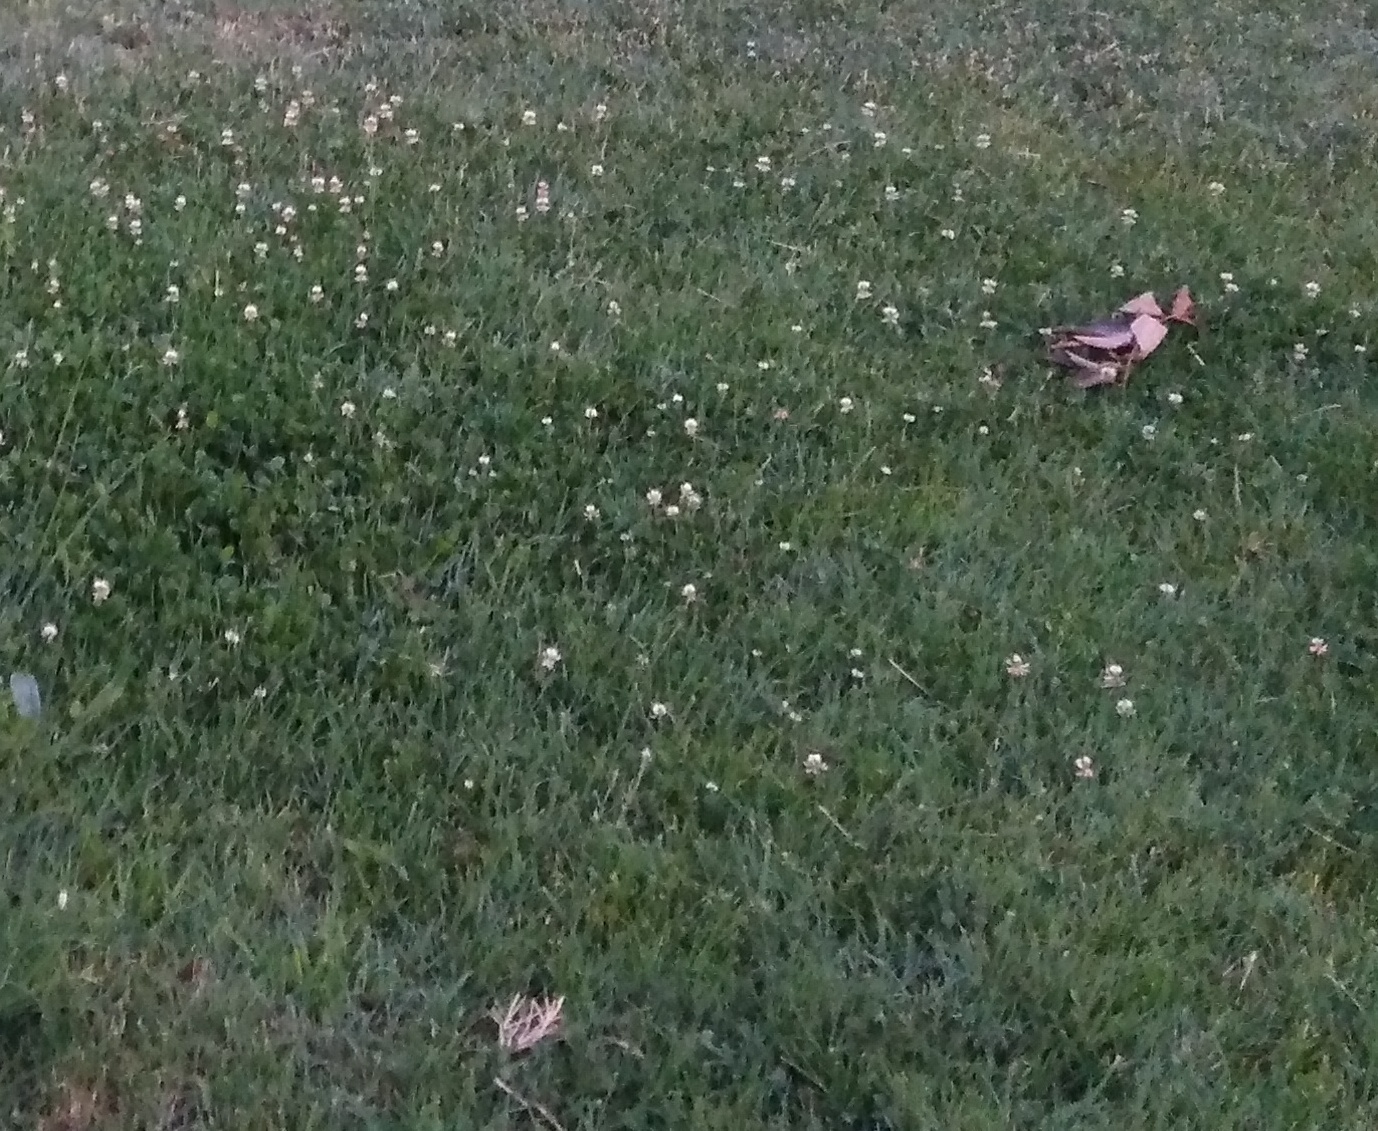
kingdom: Plantae
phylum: Tracheophyta
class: Magnoliopsida
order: Fabales
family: Fabaceae
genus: Trifolium
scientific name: Trifolium repens
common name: White clover
